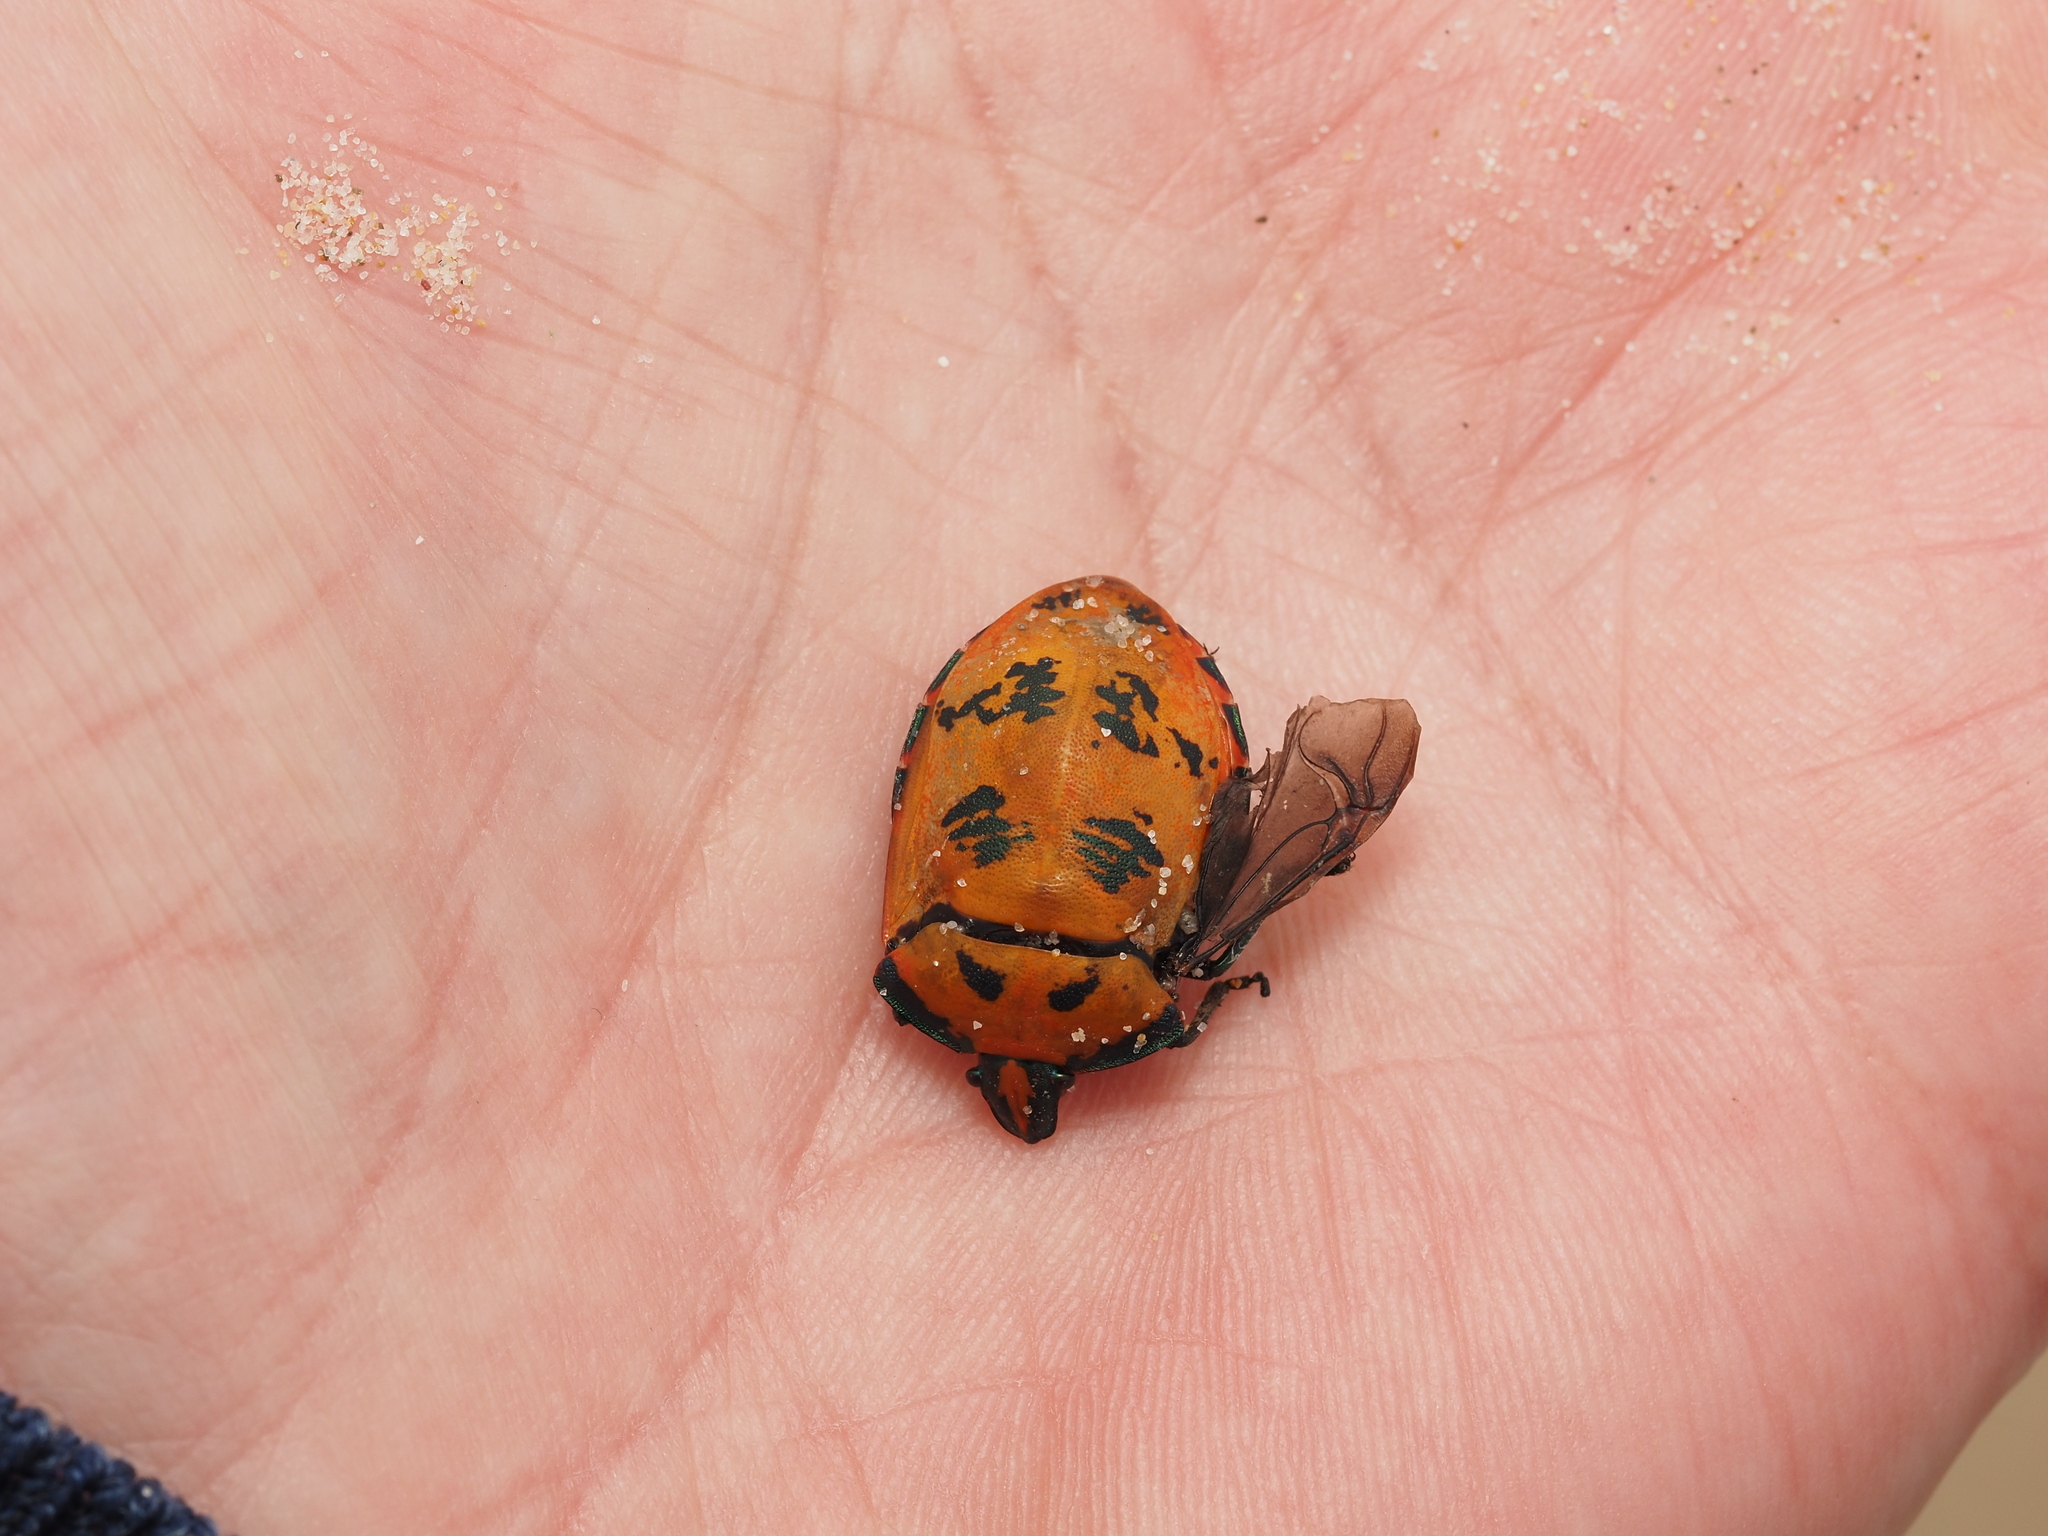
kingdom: Animalia
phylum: Arthropoda
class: Insecta
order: Hemiptera
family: Scutelleridae
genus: Tectocoris
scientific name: Tectocoris diophthalmus
